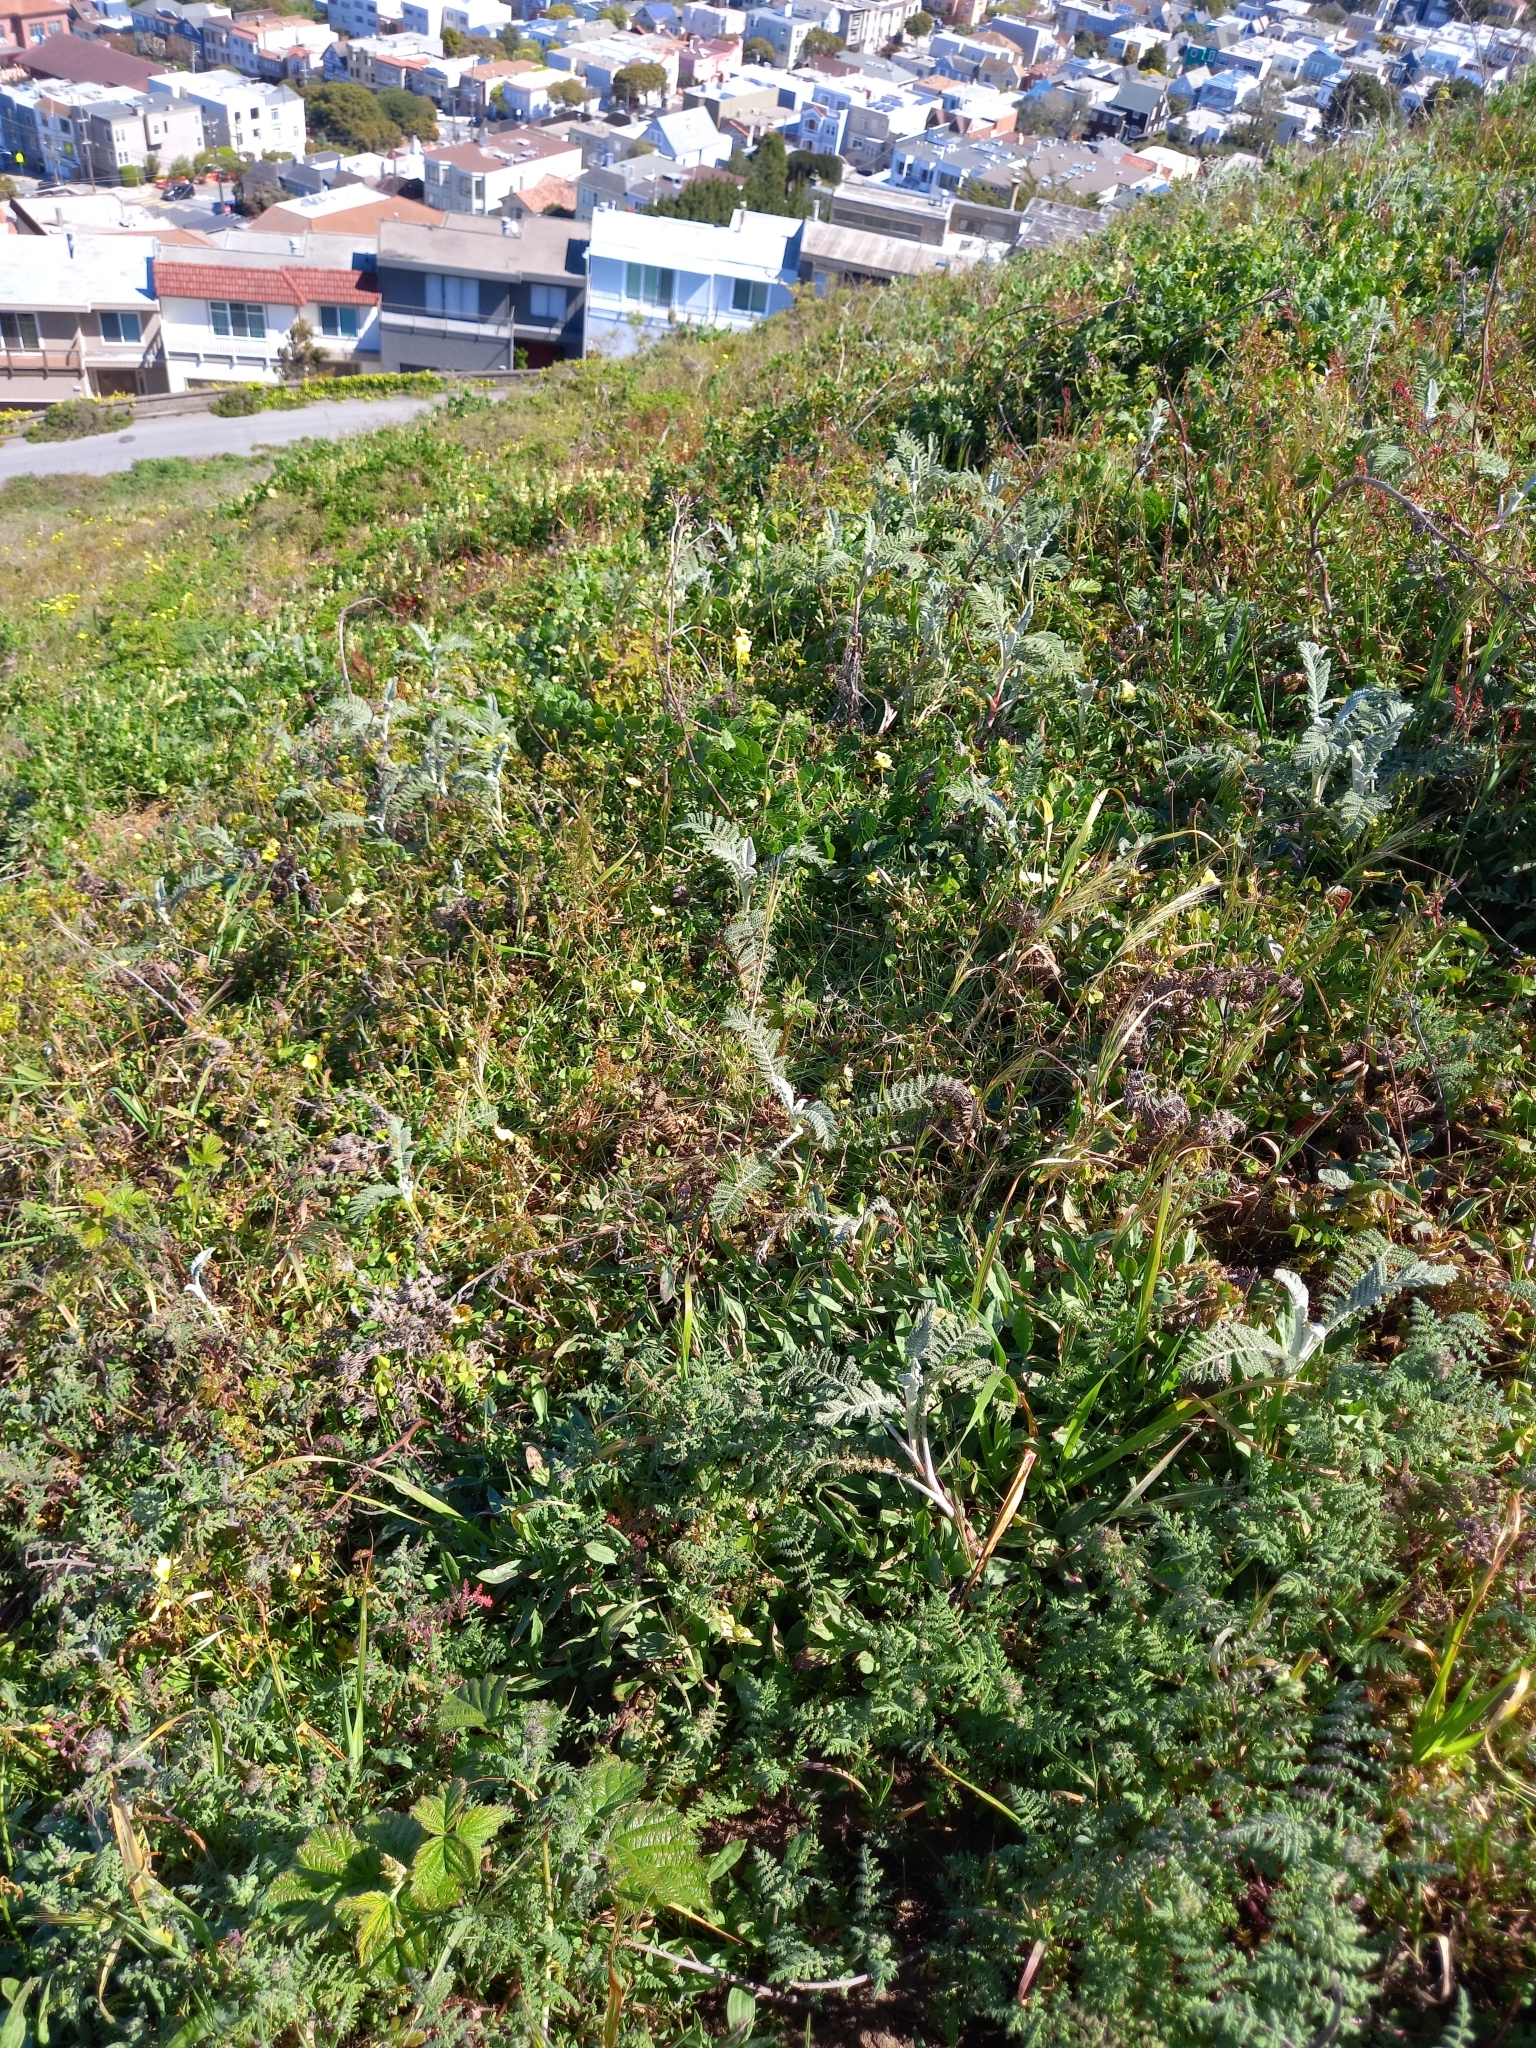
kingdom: Animalia
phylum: Arthropoda
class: Insecta
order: Lepidoptera
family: Lycaenidae
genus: Callophrys
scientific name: Callophrys viridis
